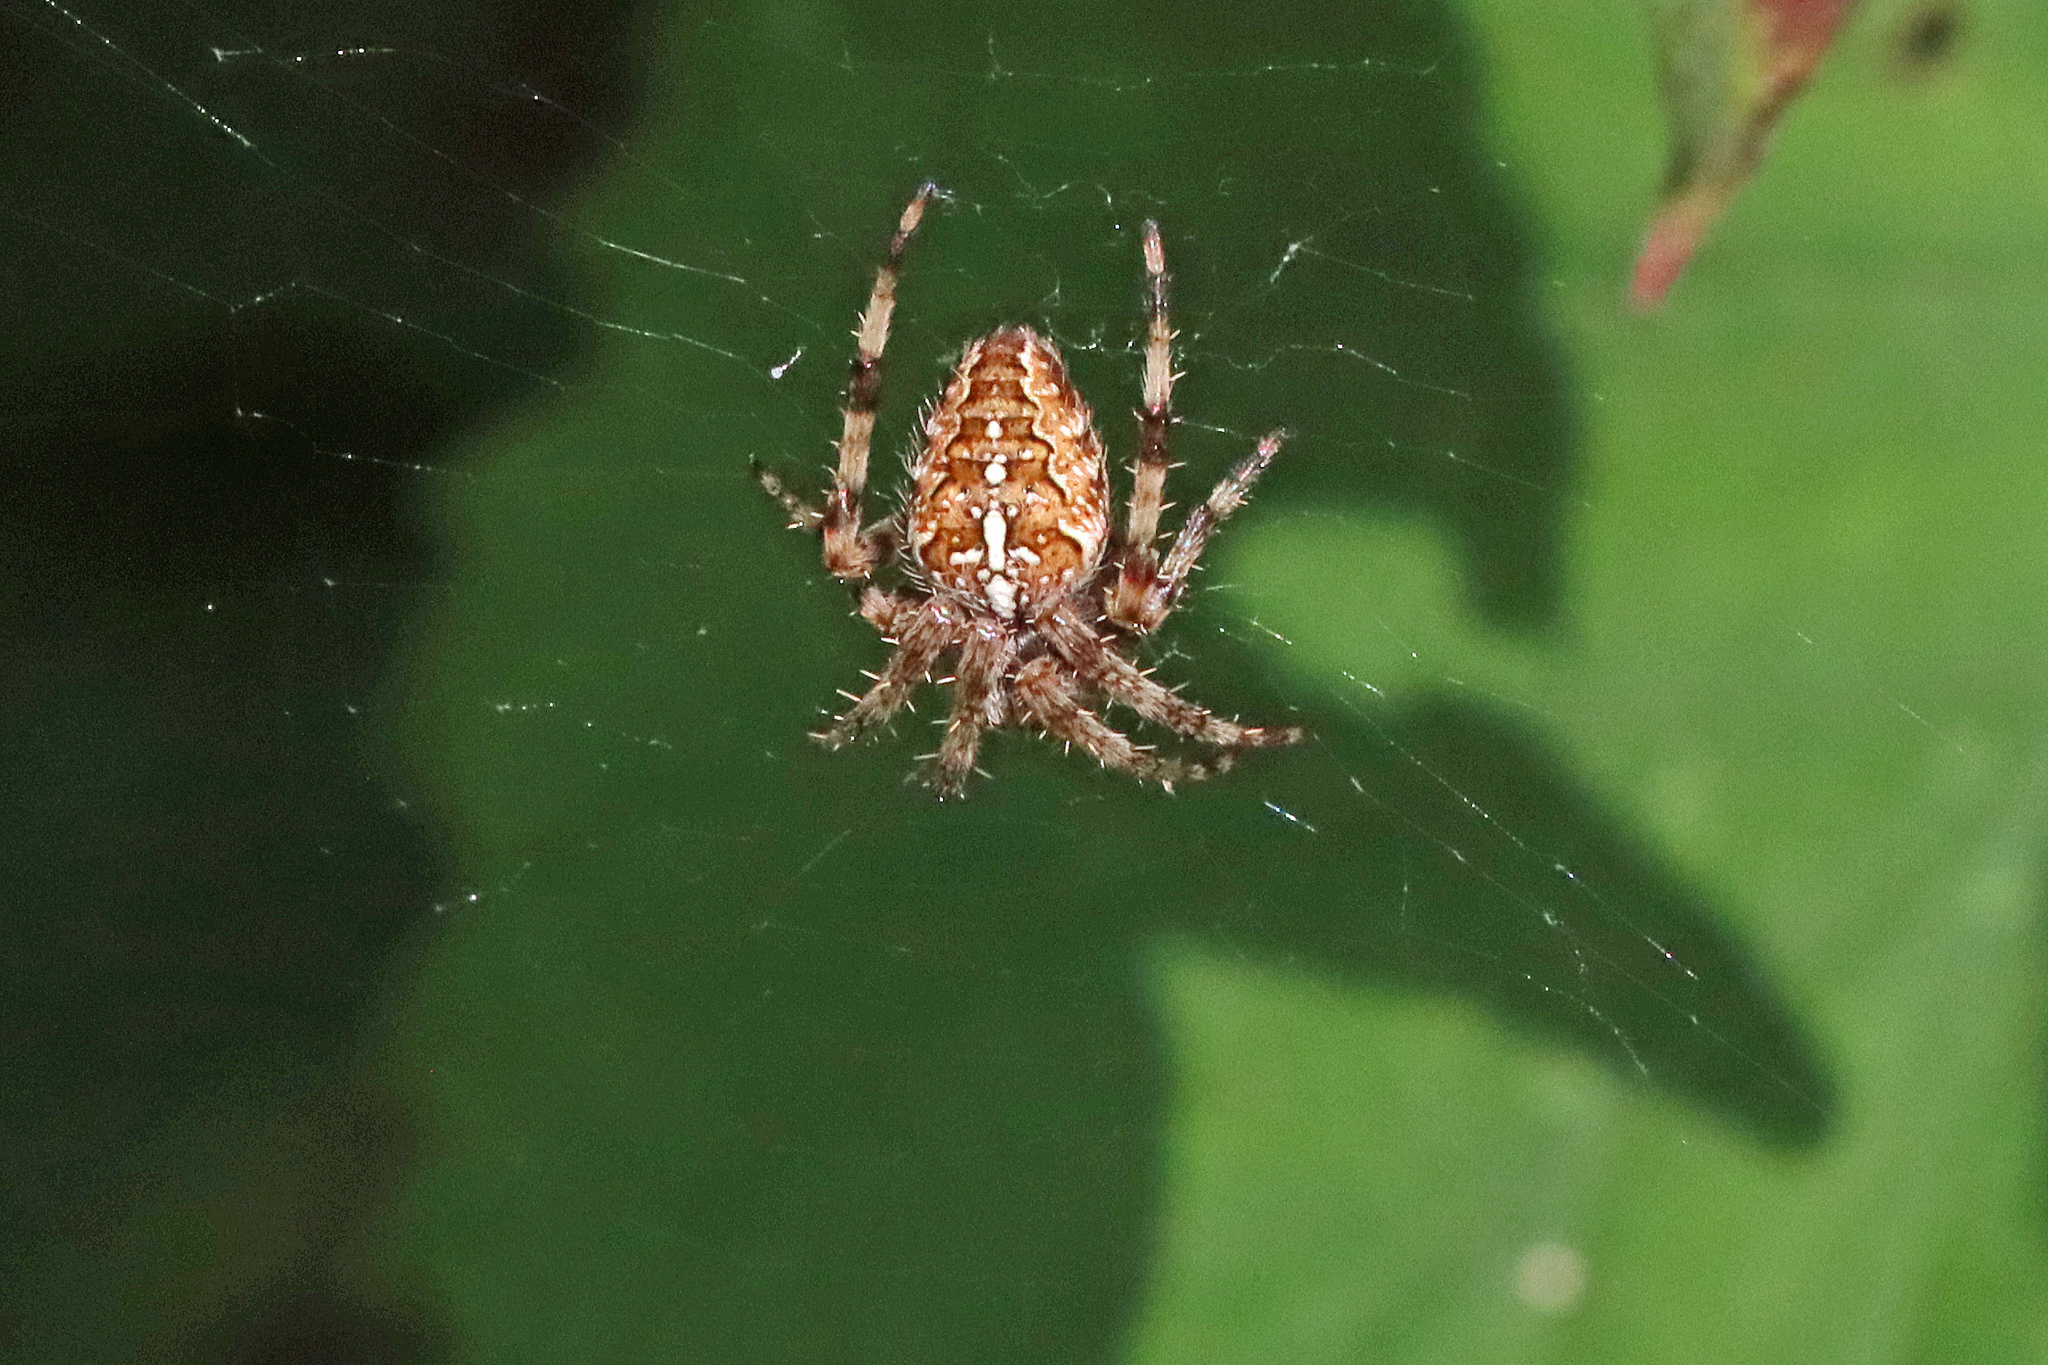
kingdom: Animalia
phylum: Arthropoda
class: Arachnida
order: Araneae
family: Araneidae
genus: Araneus
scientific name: Araneus diadematus
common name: Cross orbweaver
